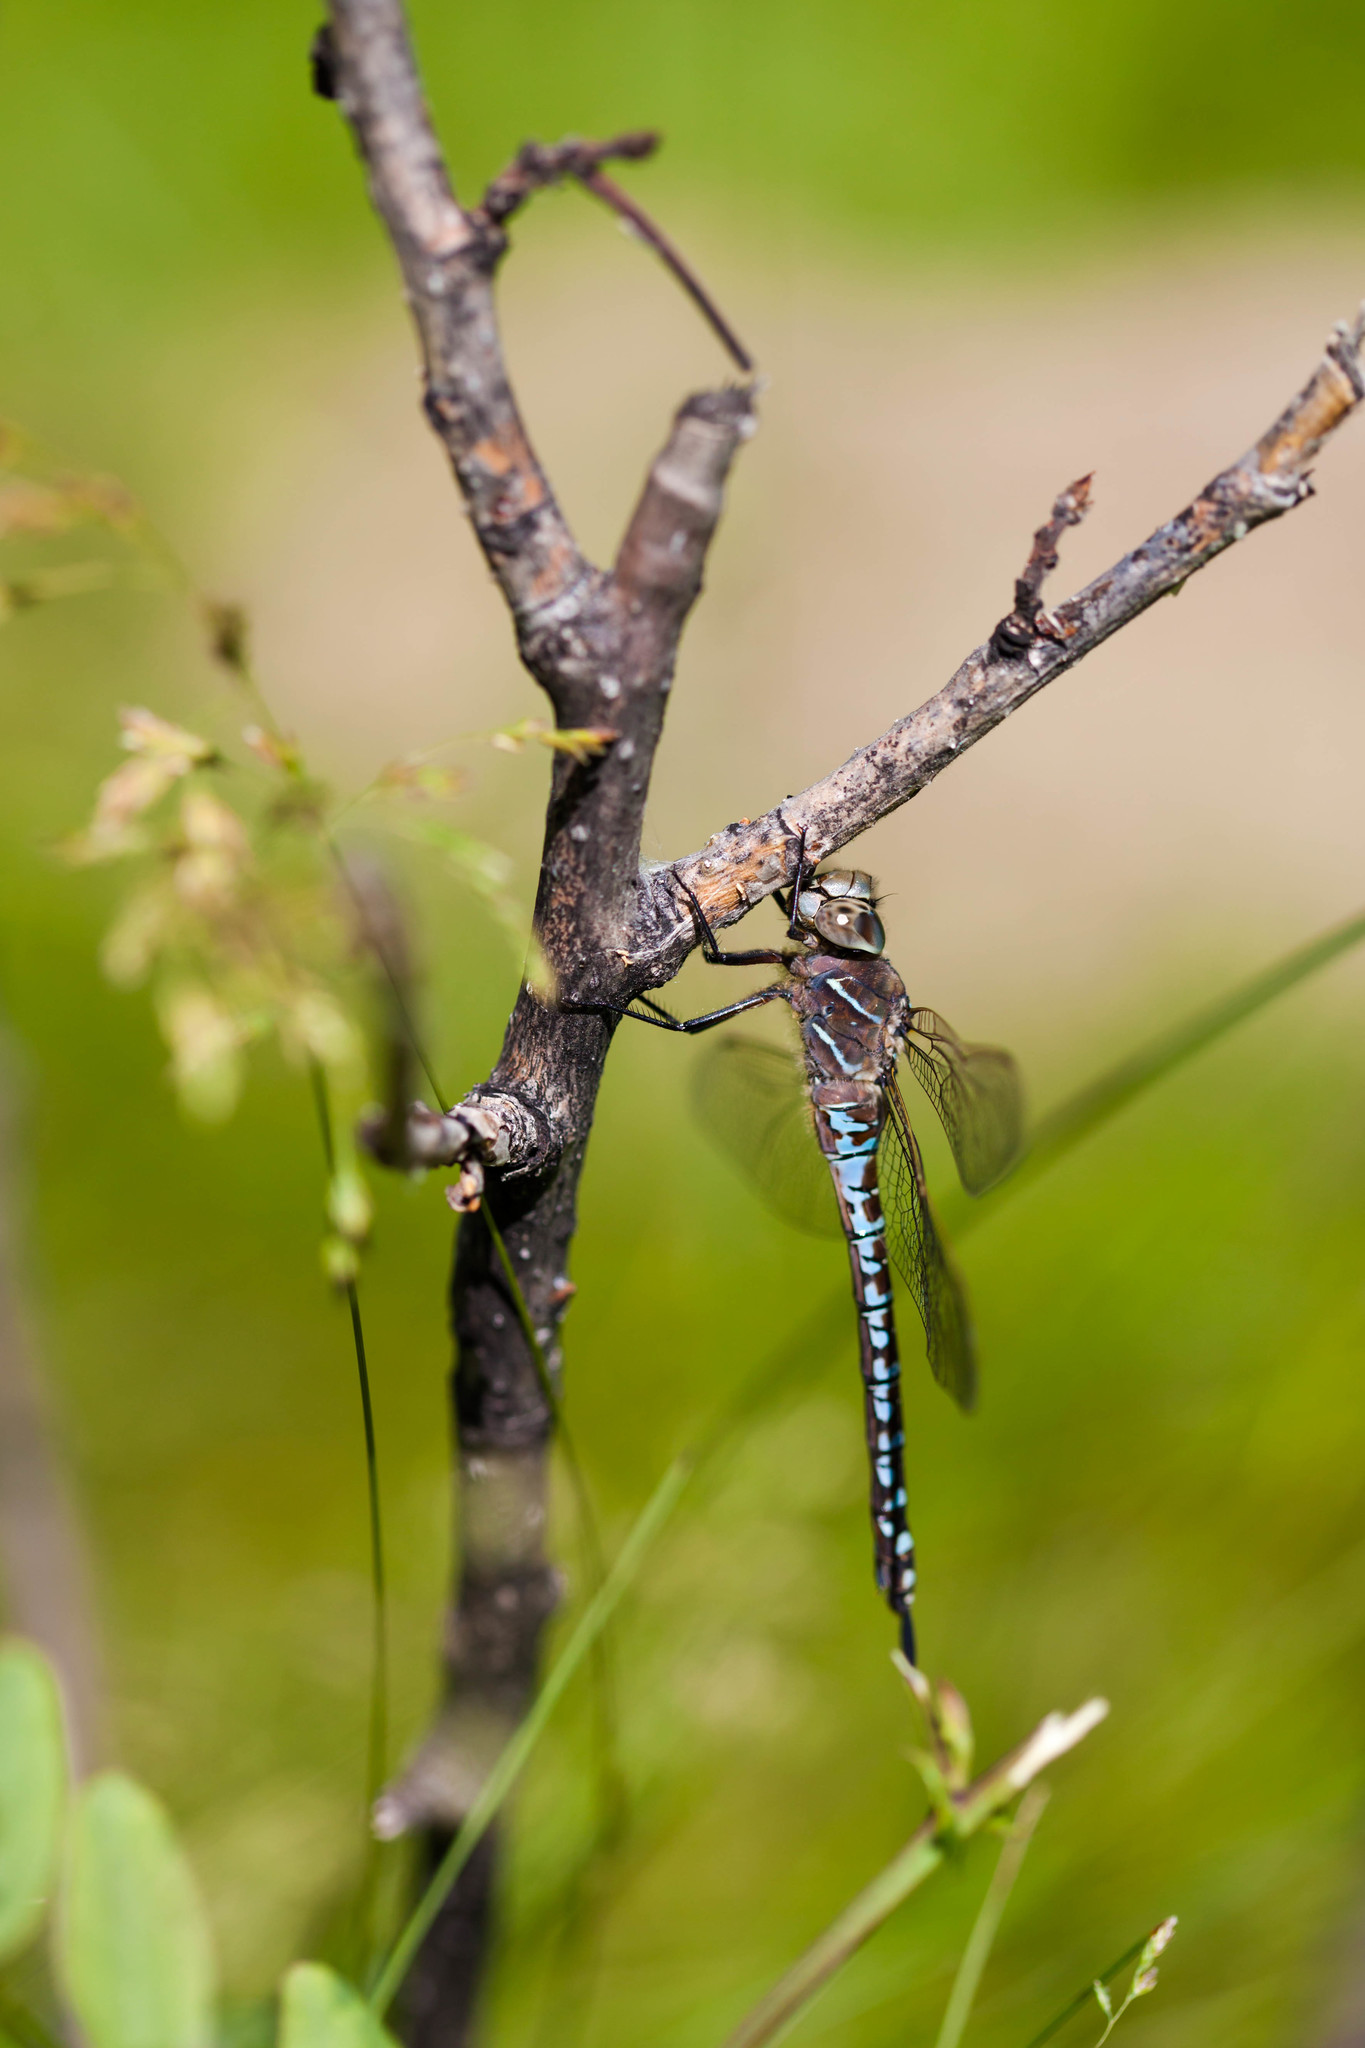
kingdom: Animalia
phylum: Arthropoda
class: Insecta
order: Odonata
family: Aeshnidae
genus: Aeshna
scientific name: Aeshna interrupta
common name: Variable darner
